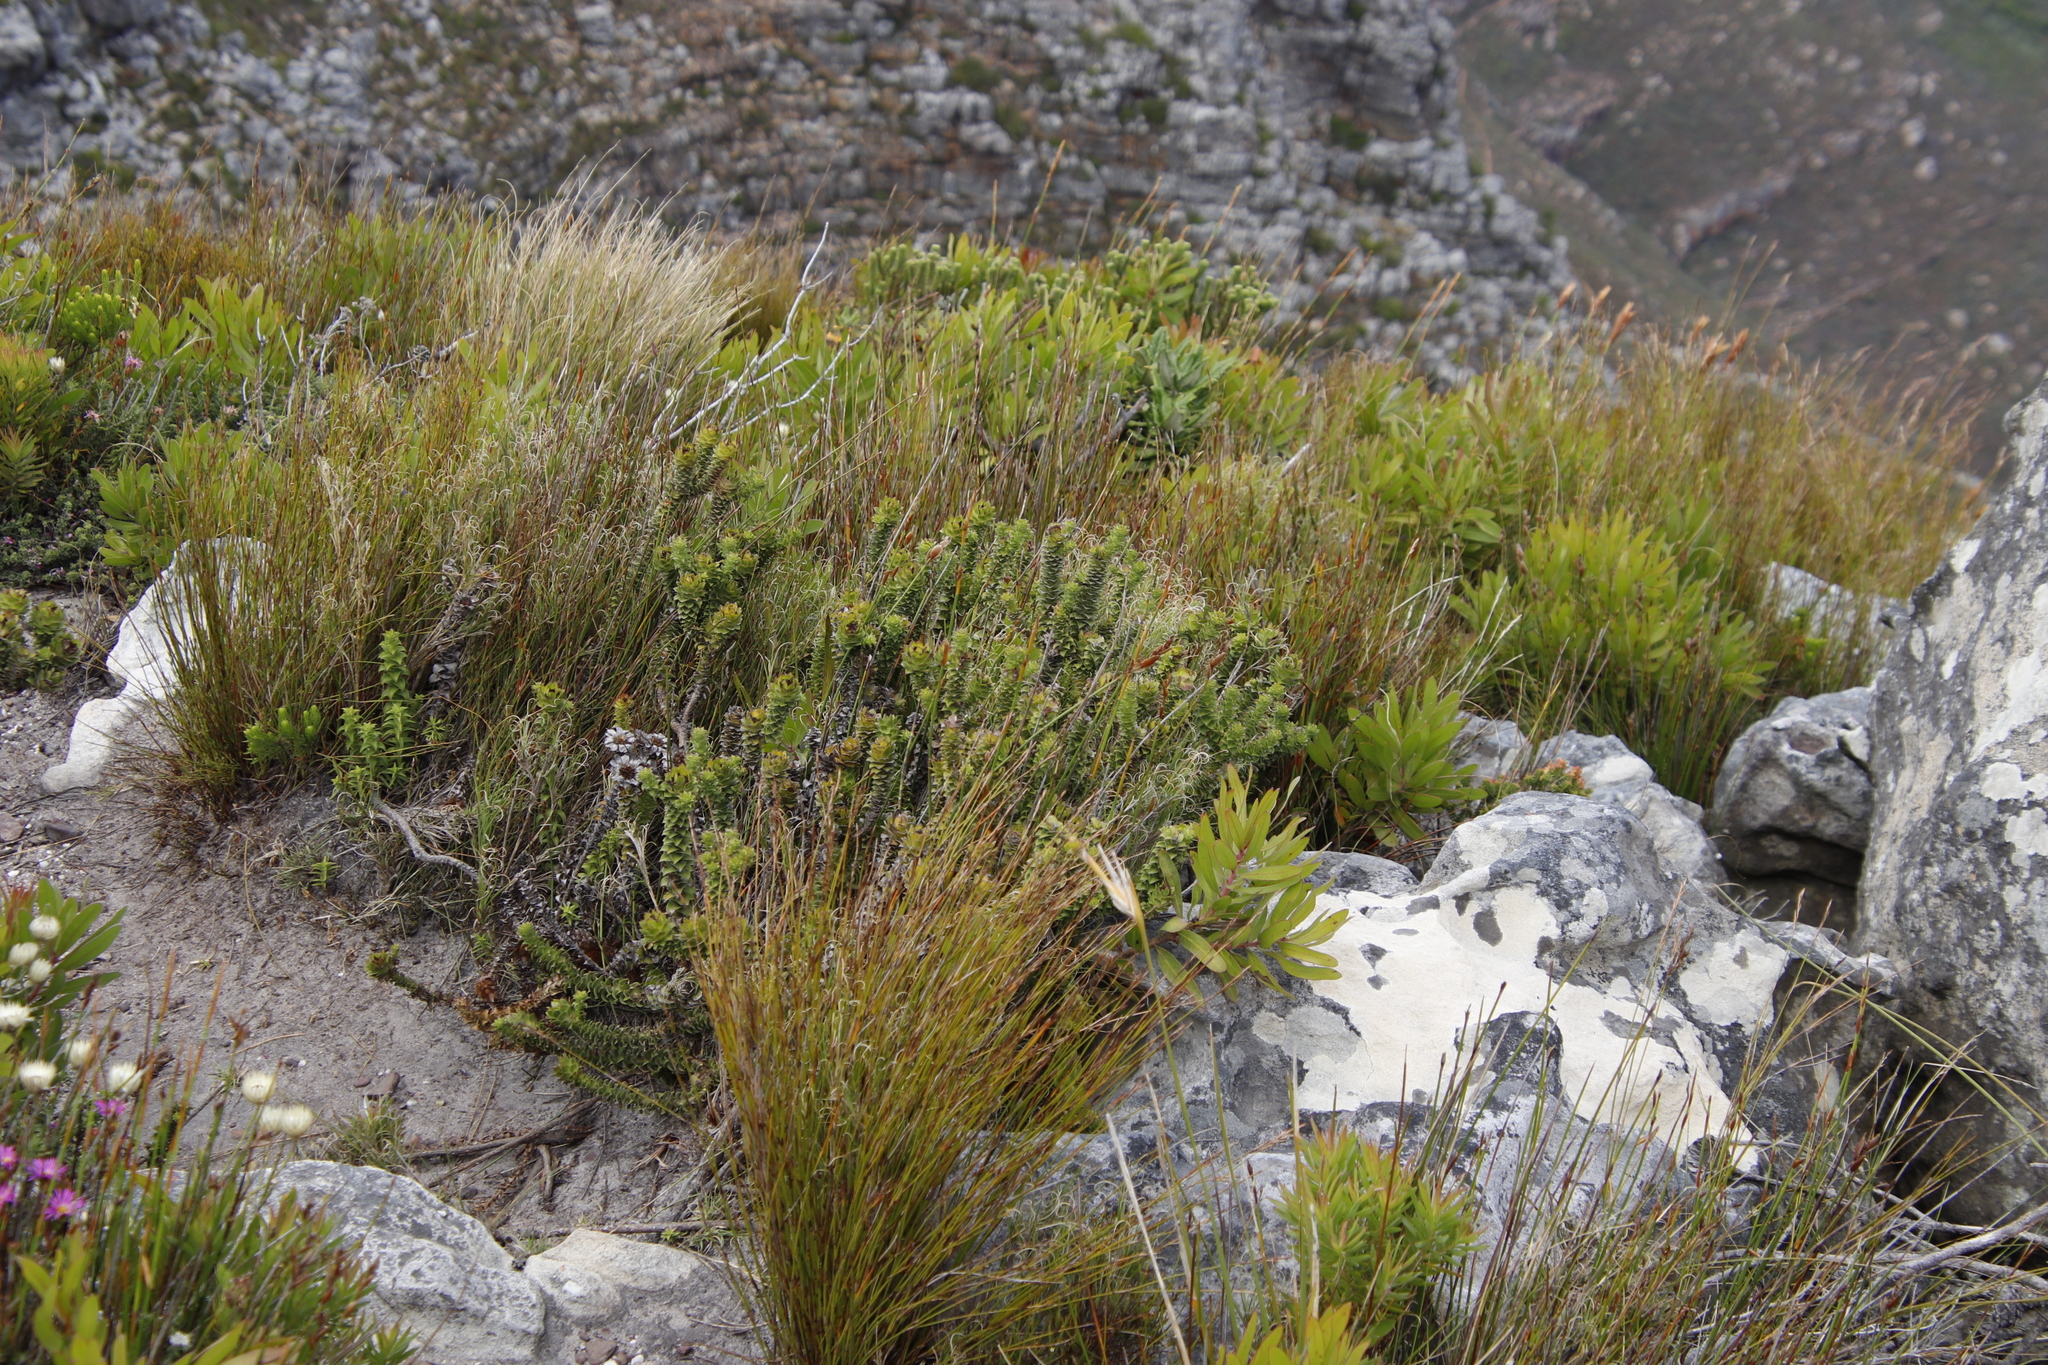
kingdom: Plantae
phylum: Tracheophyta
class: Magnoliopsida
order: Asterales
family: Asteraceae
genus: Oedera
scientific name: Oedera imbricata
